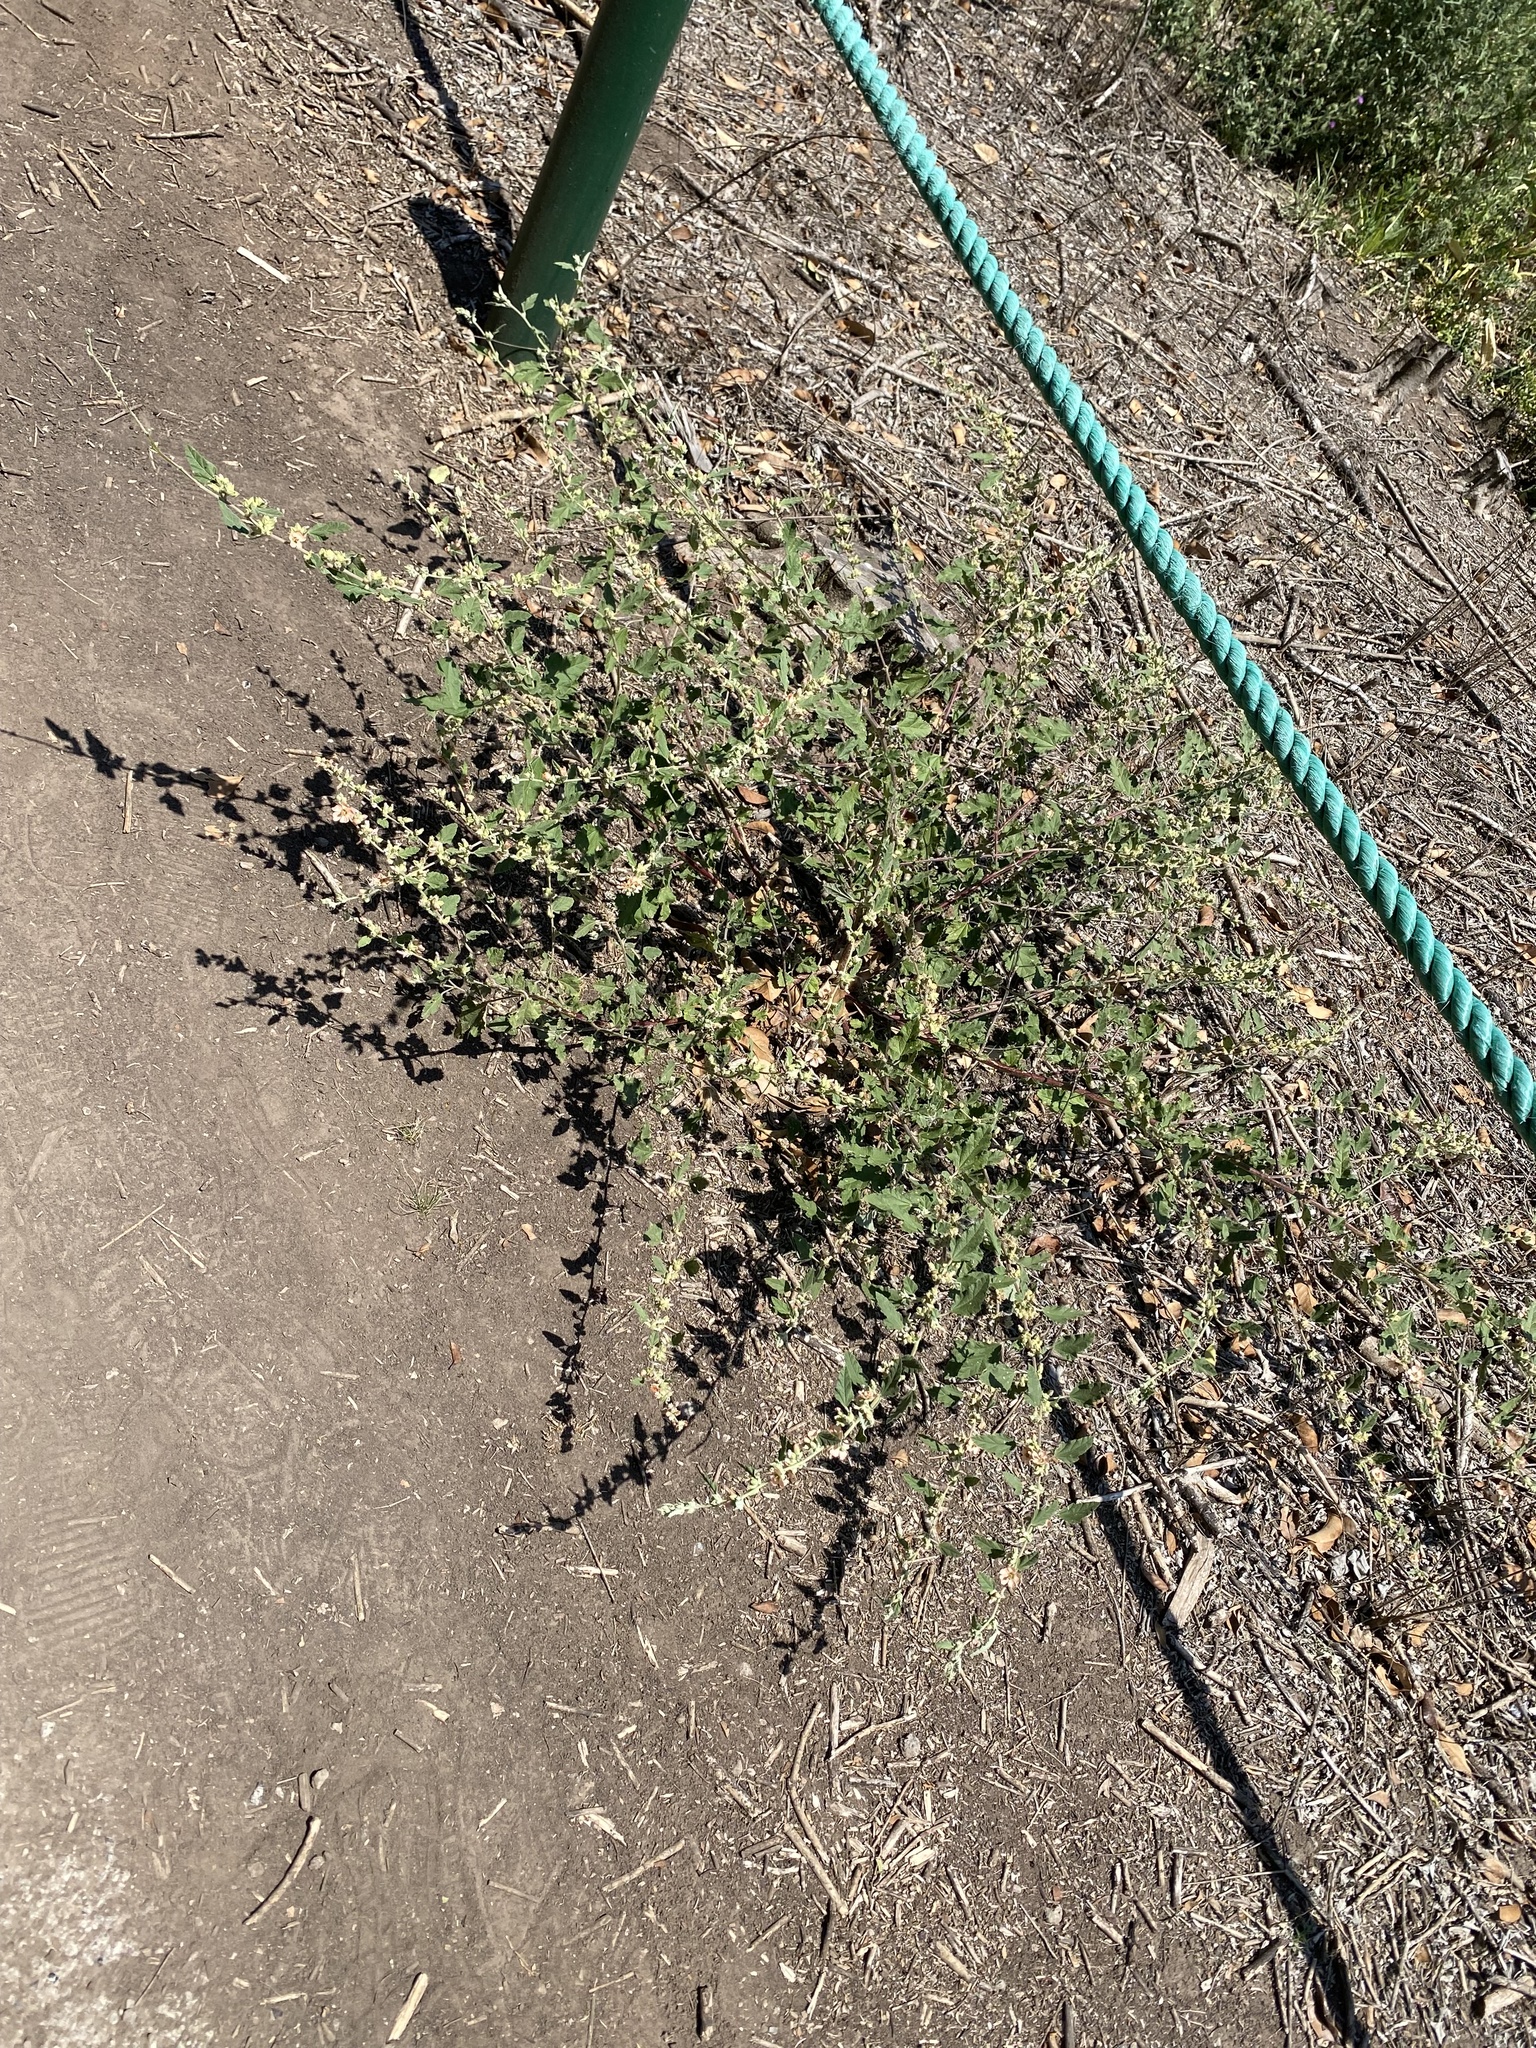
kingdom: Plantae
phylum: Tracheophyta
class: Magnoliopsida
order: Malvales
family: Malvaceae
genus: Sphaeralcea
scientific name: Sphaeralcea bonariensis
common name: Latin globemallow
